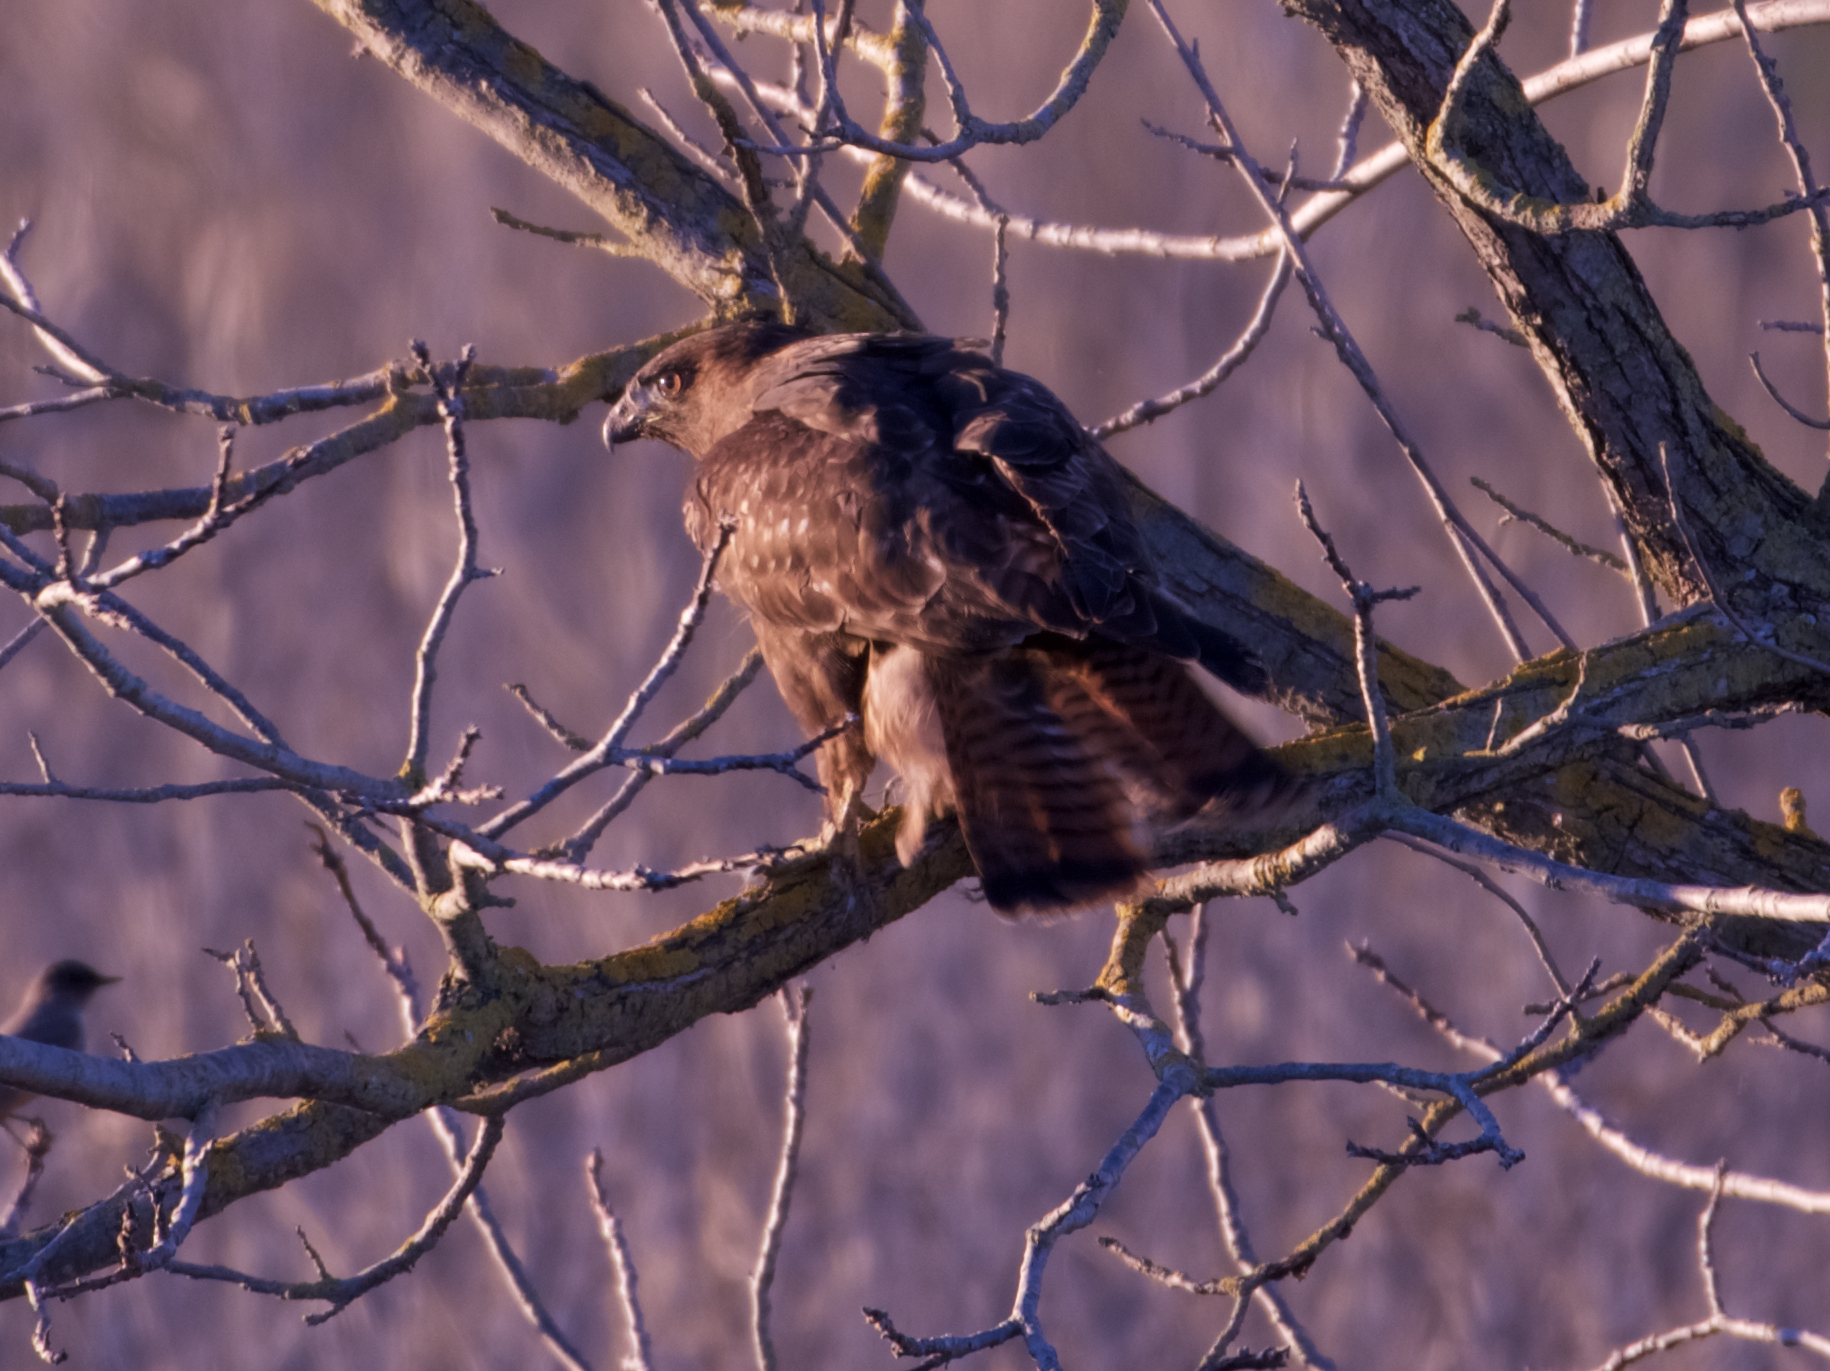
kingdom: Animalia
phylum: Chordata
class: Aves
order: Accipitriformes
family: Accipitridae
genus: Buteo
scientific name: Buteo jamaicensis
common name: Red-tailed hawk
